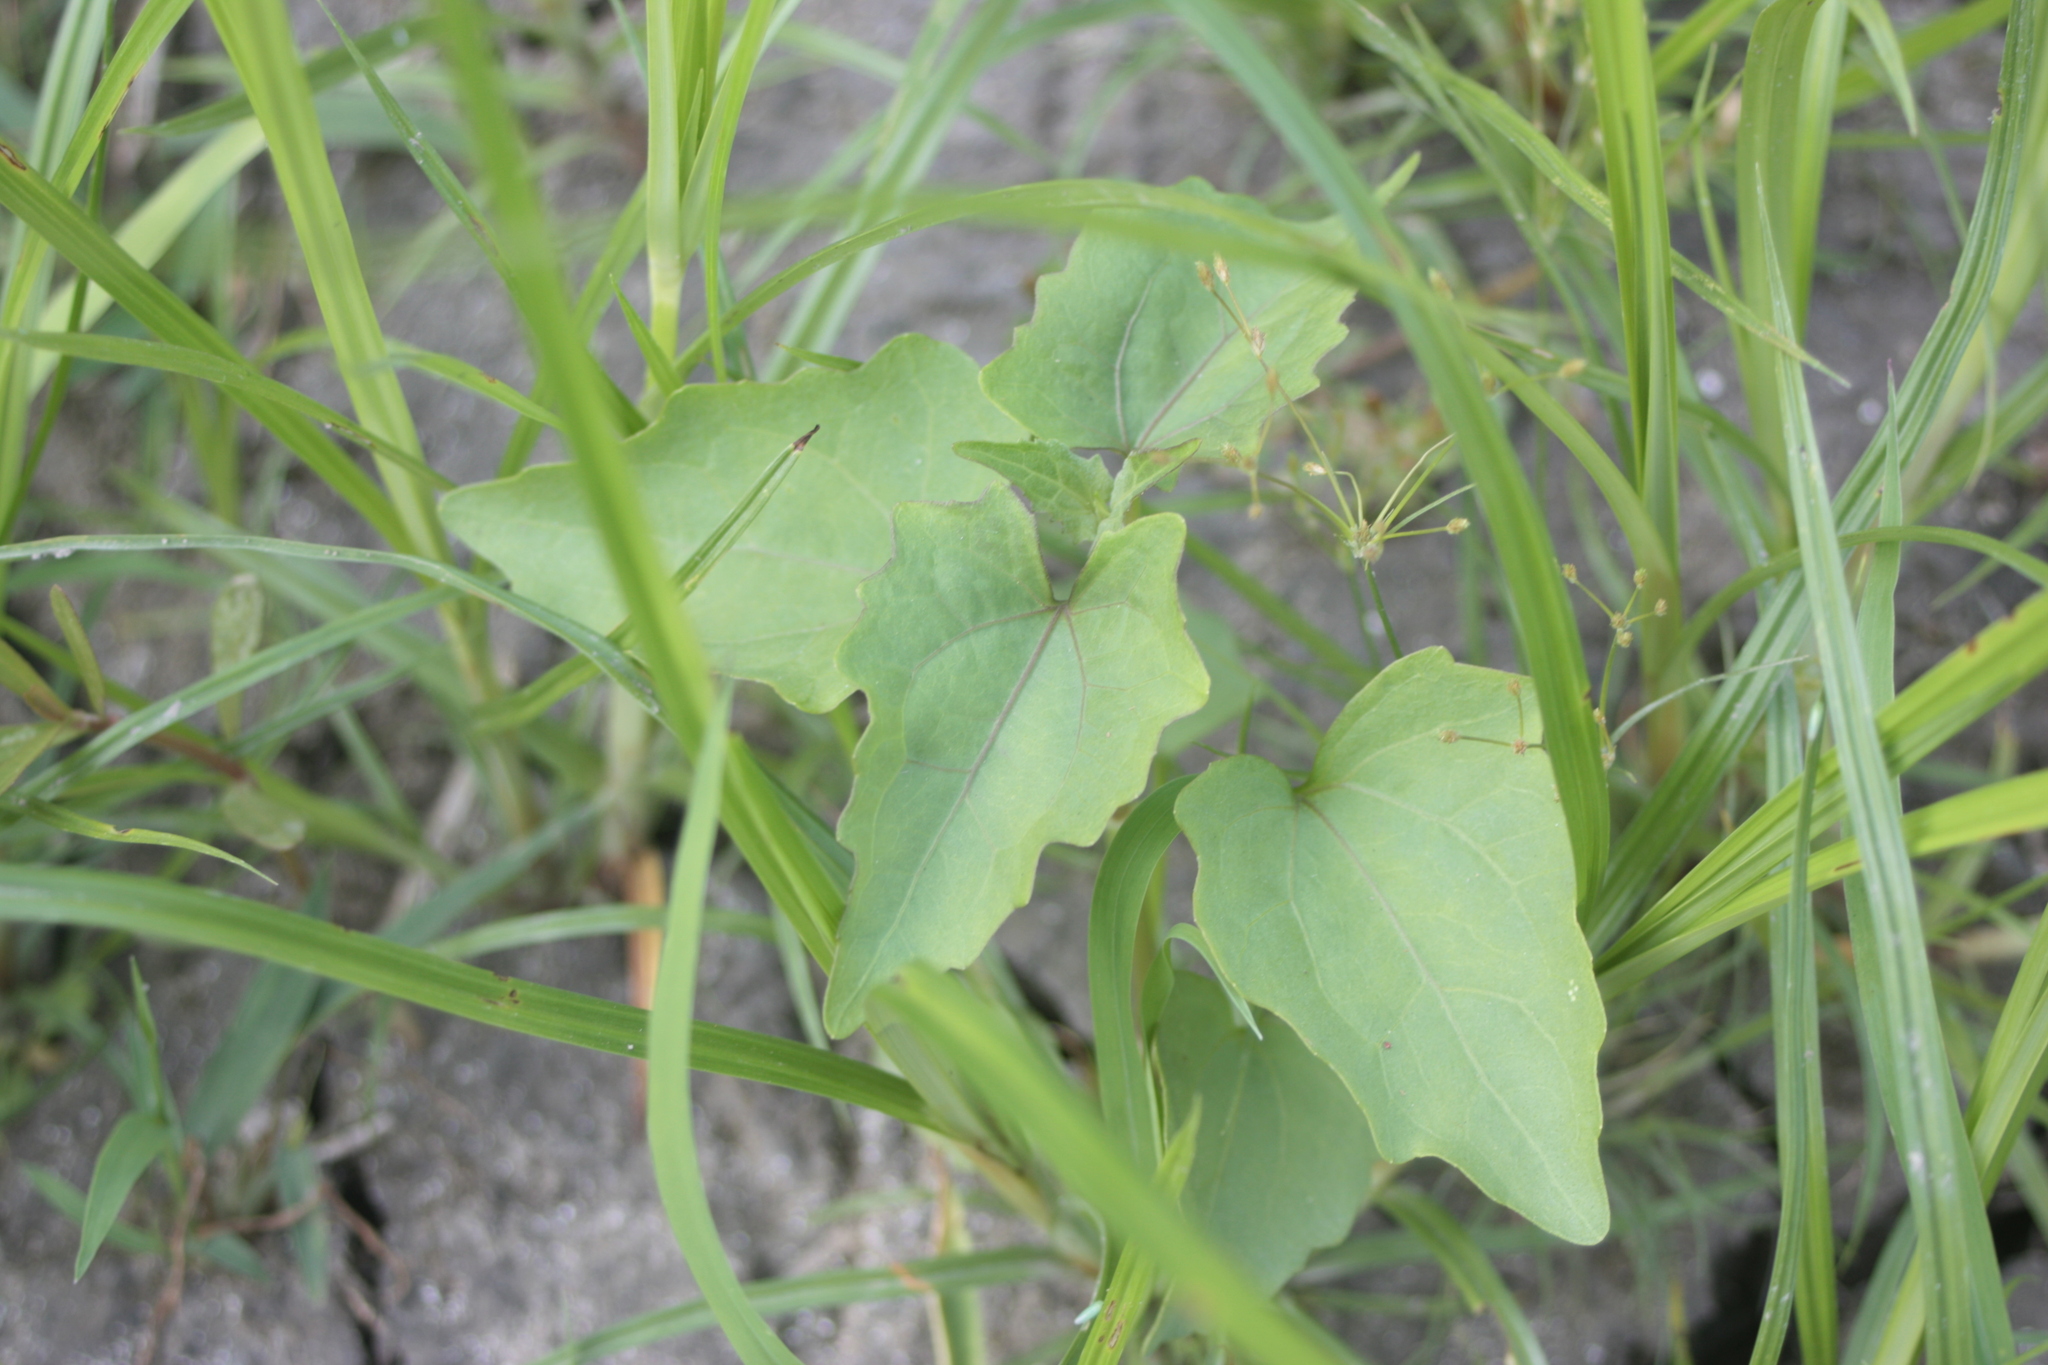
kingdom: Plantae
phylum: Tracheophyta
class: Magnoliopsida
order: Asterales
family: Asteraceae
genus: Mikania
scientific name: Mikania micrantha
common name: Mile-a-minute
